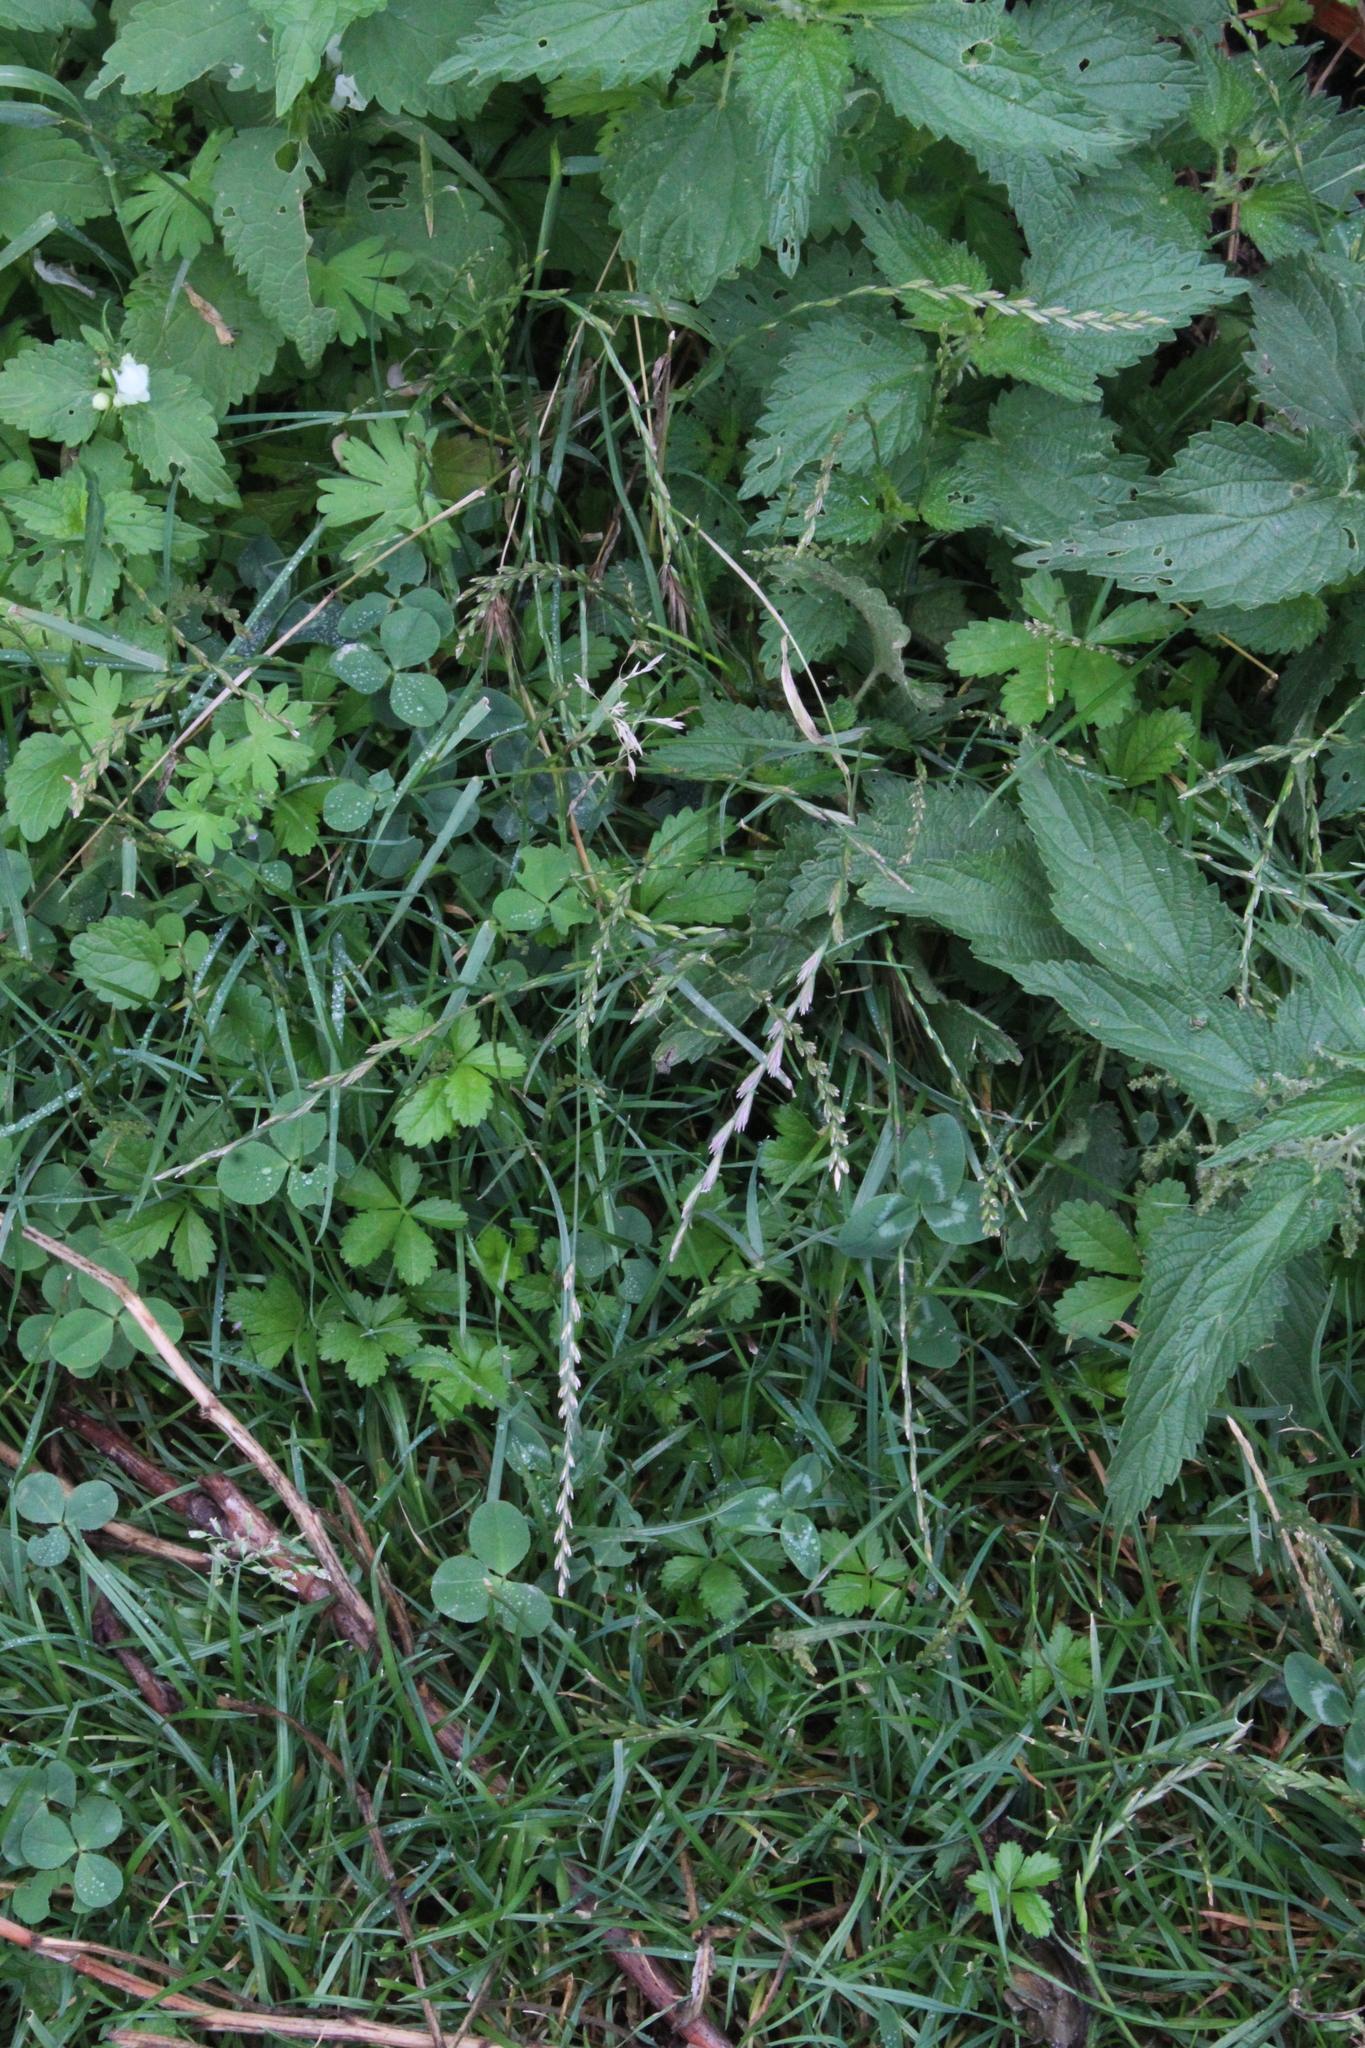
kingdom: Plantae
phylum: Tracheophyta
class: Liliopsida
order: Poales
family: Poaceae
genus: Lolium
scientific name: Lolium perenne
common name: Perennial ryegrass
